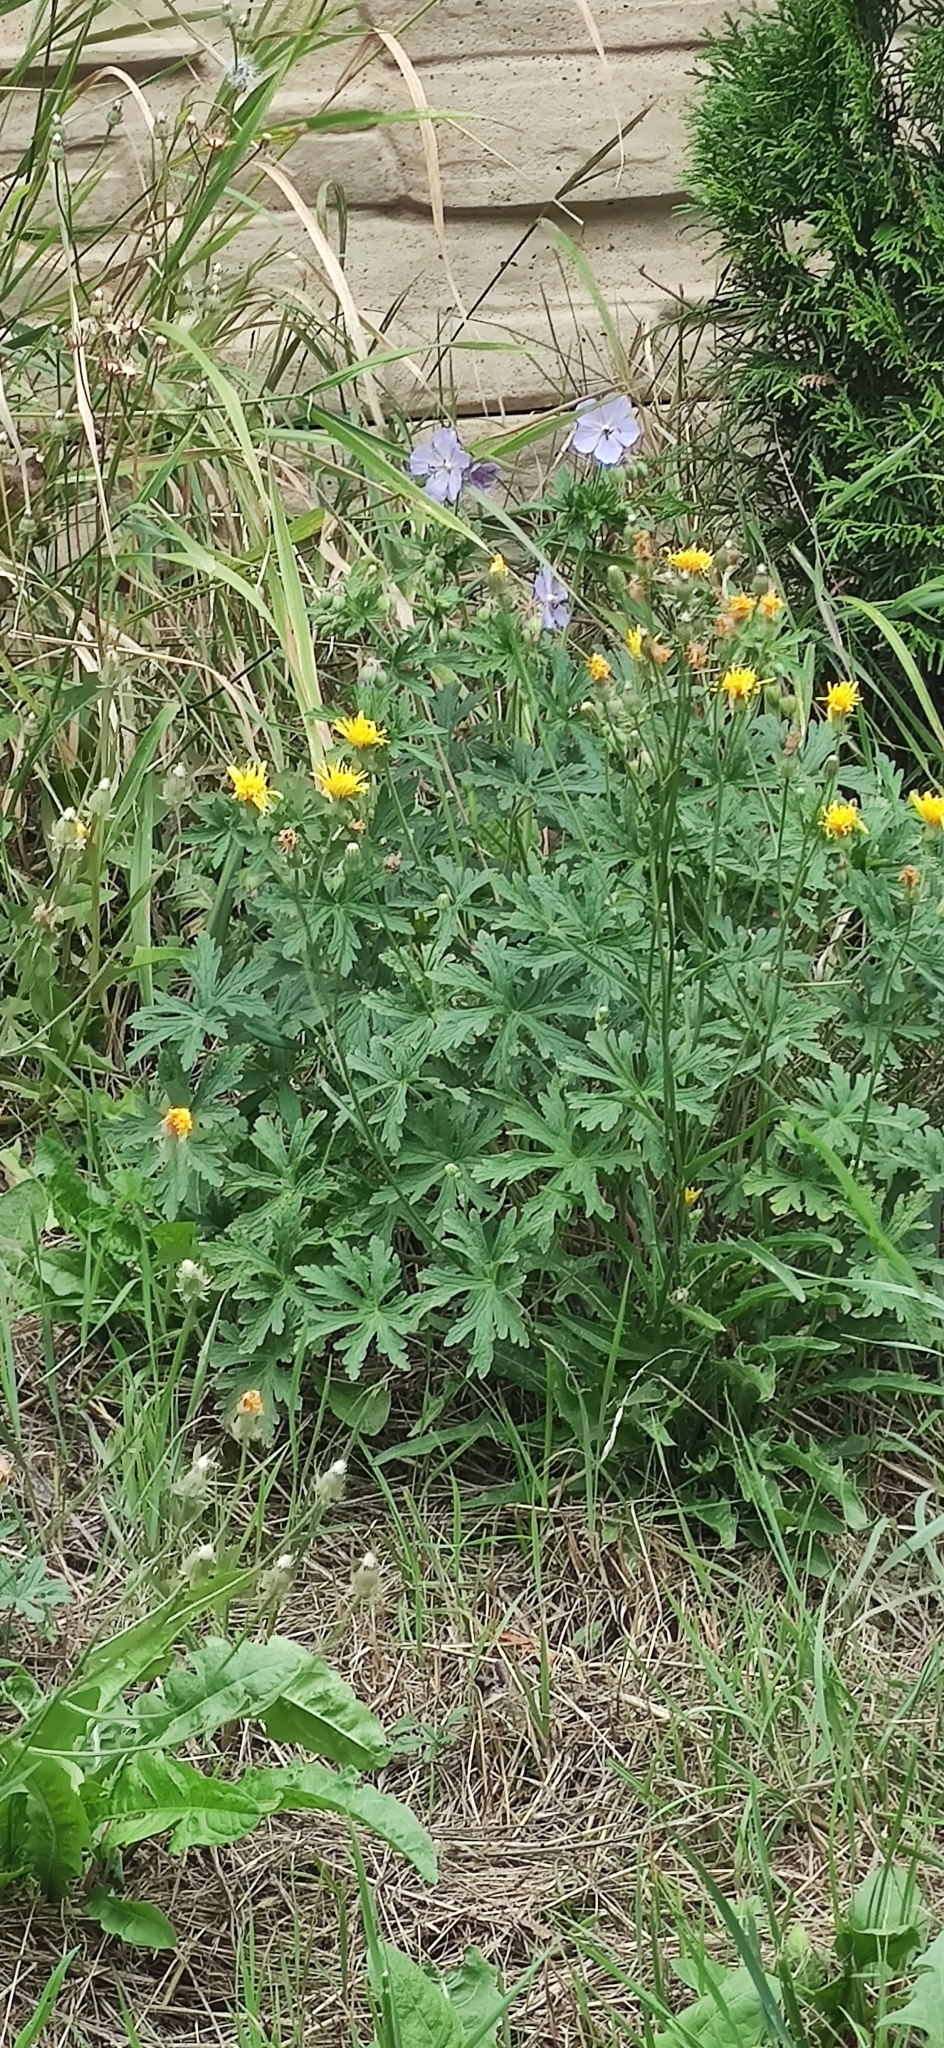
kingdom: Plantae
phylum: Tracheophyta
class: Magnoliopsida
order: Geraniales
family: Geraniaceae
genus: Geranium
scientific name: Geranium pratense
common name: Meadow crane's-bill
